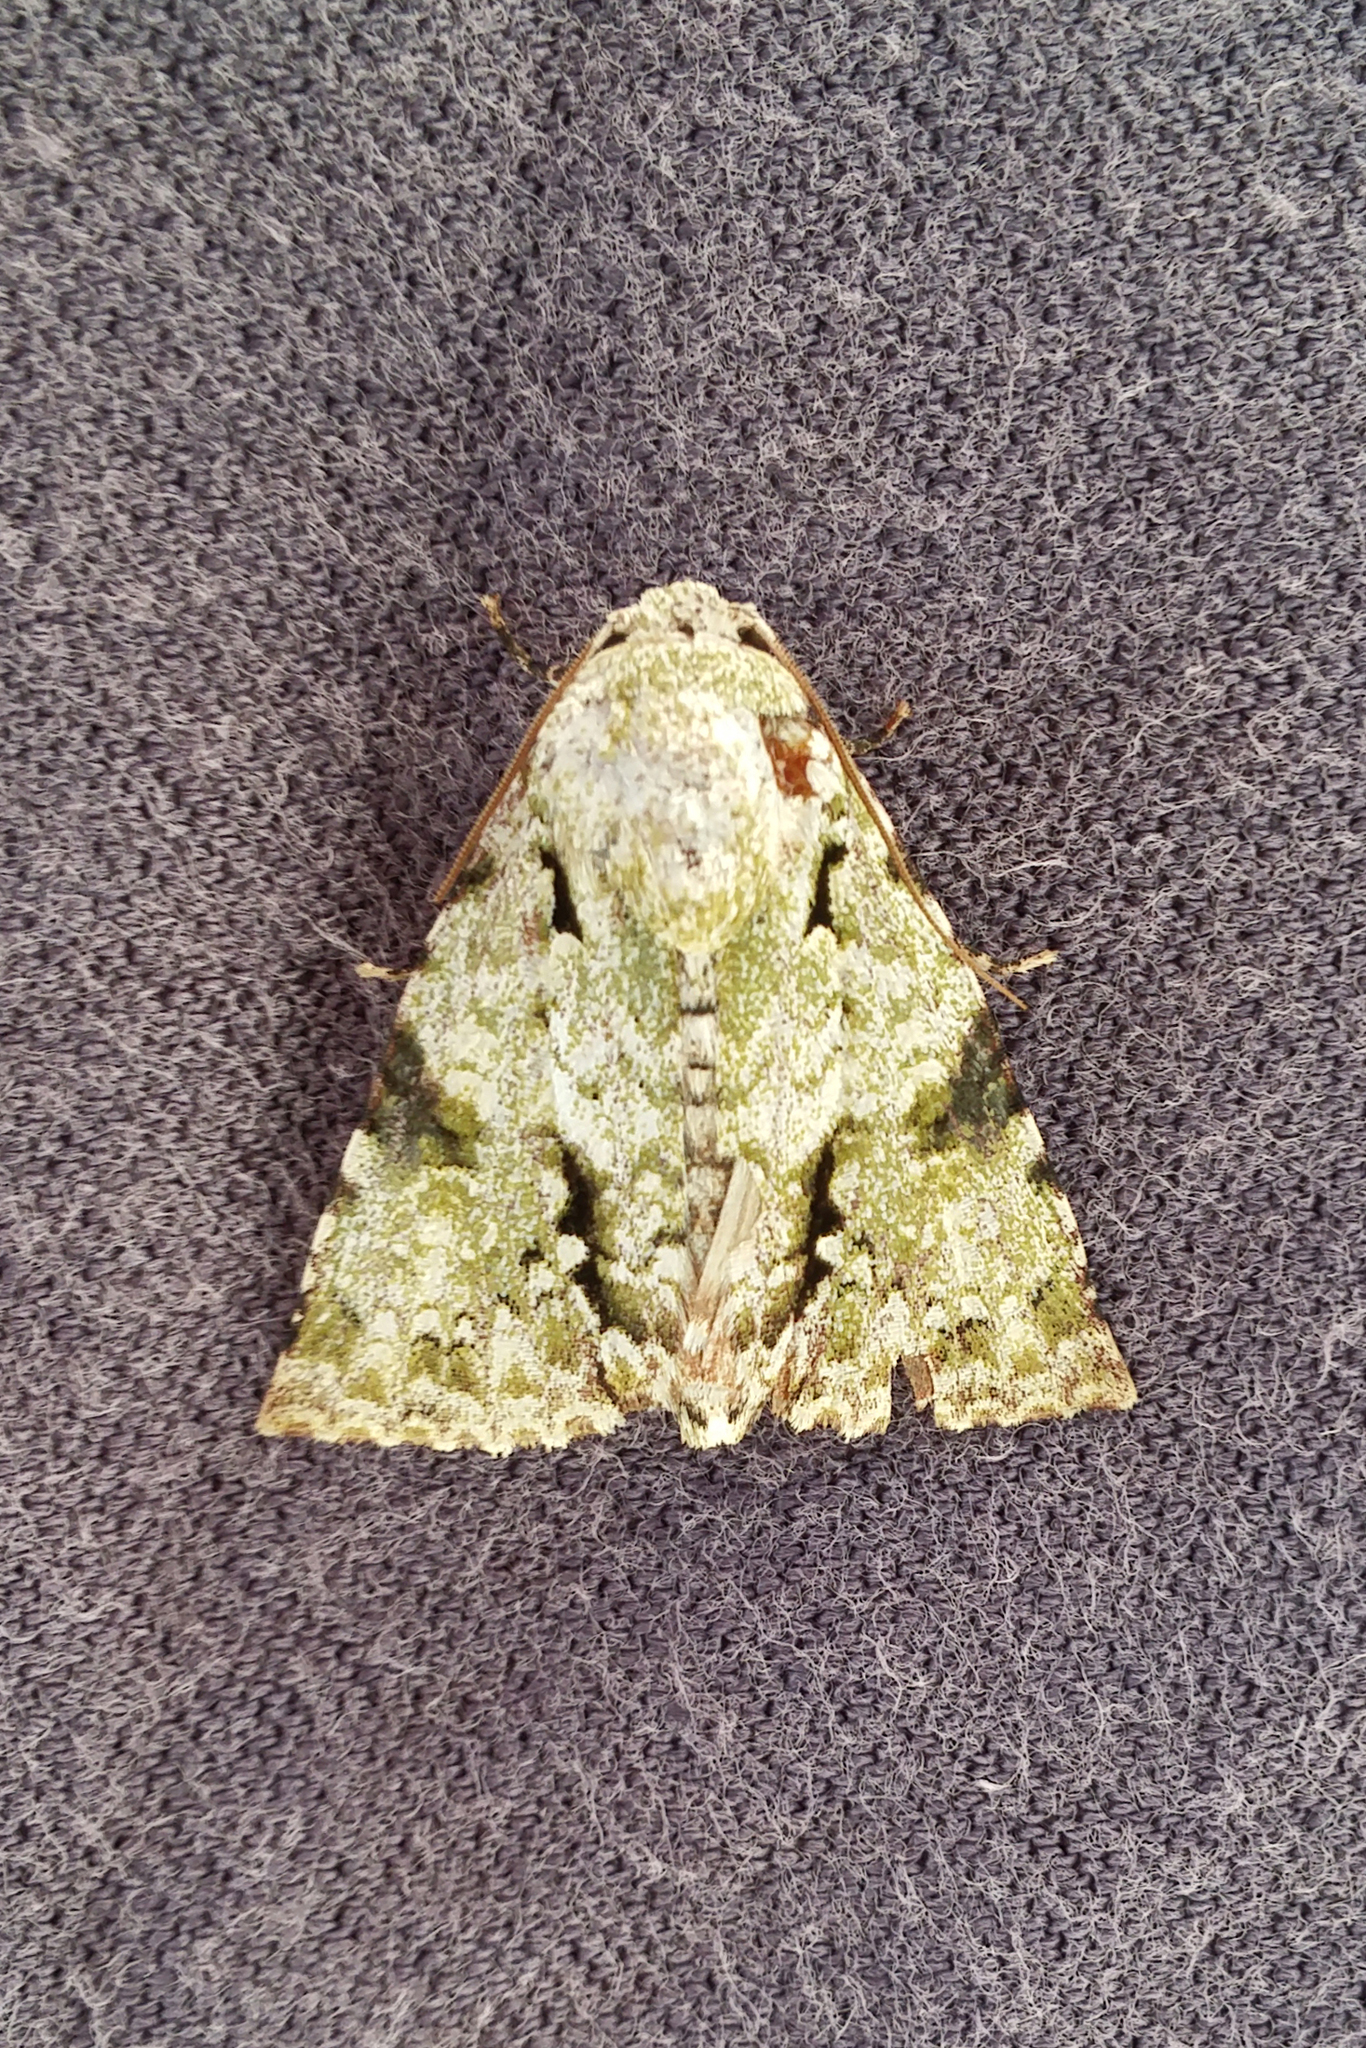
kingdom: Animalia
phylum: Arthropoda
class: Insecta
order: Lepidoptera
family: Noctuidae
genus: Acronicta
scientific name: Acronicta dinawa
